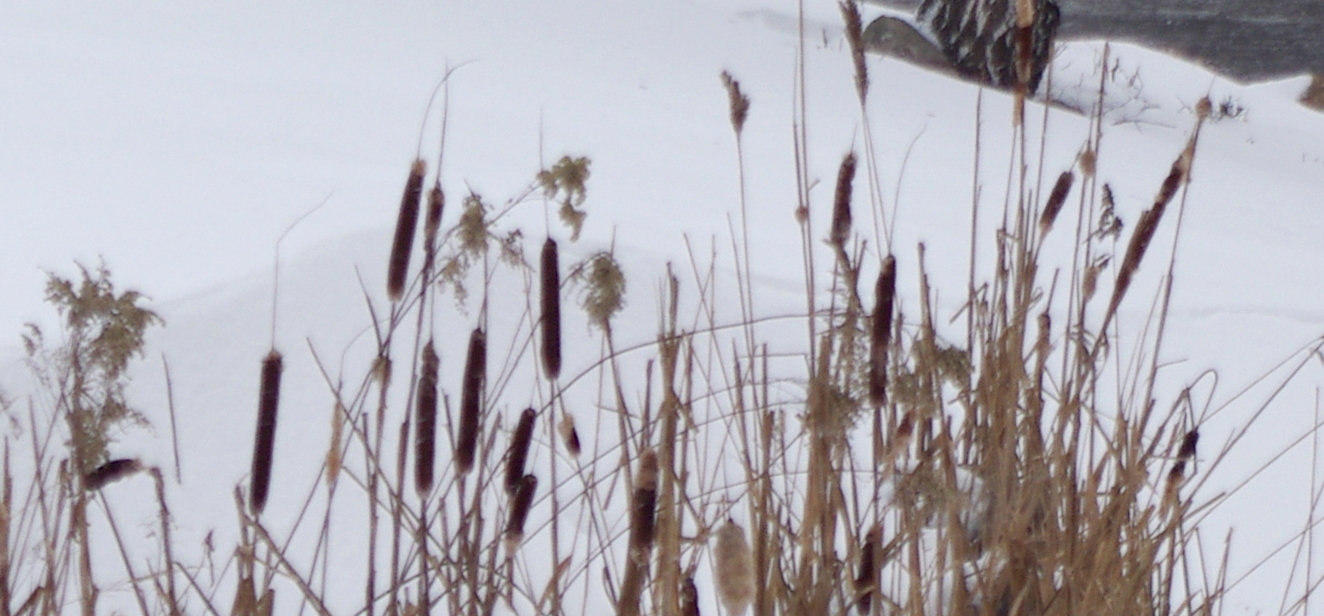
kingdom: Plantae
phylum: Tracheophyta
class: Liliopsida
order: Poales
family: Typhaceae
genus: Typha
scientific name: Typha latifolia
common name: Broadleaf cattail
